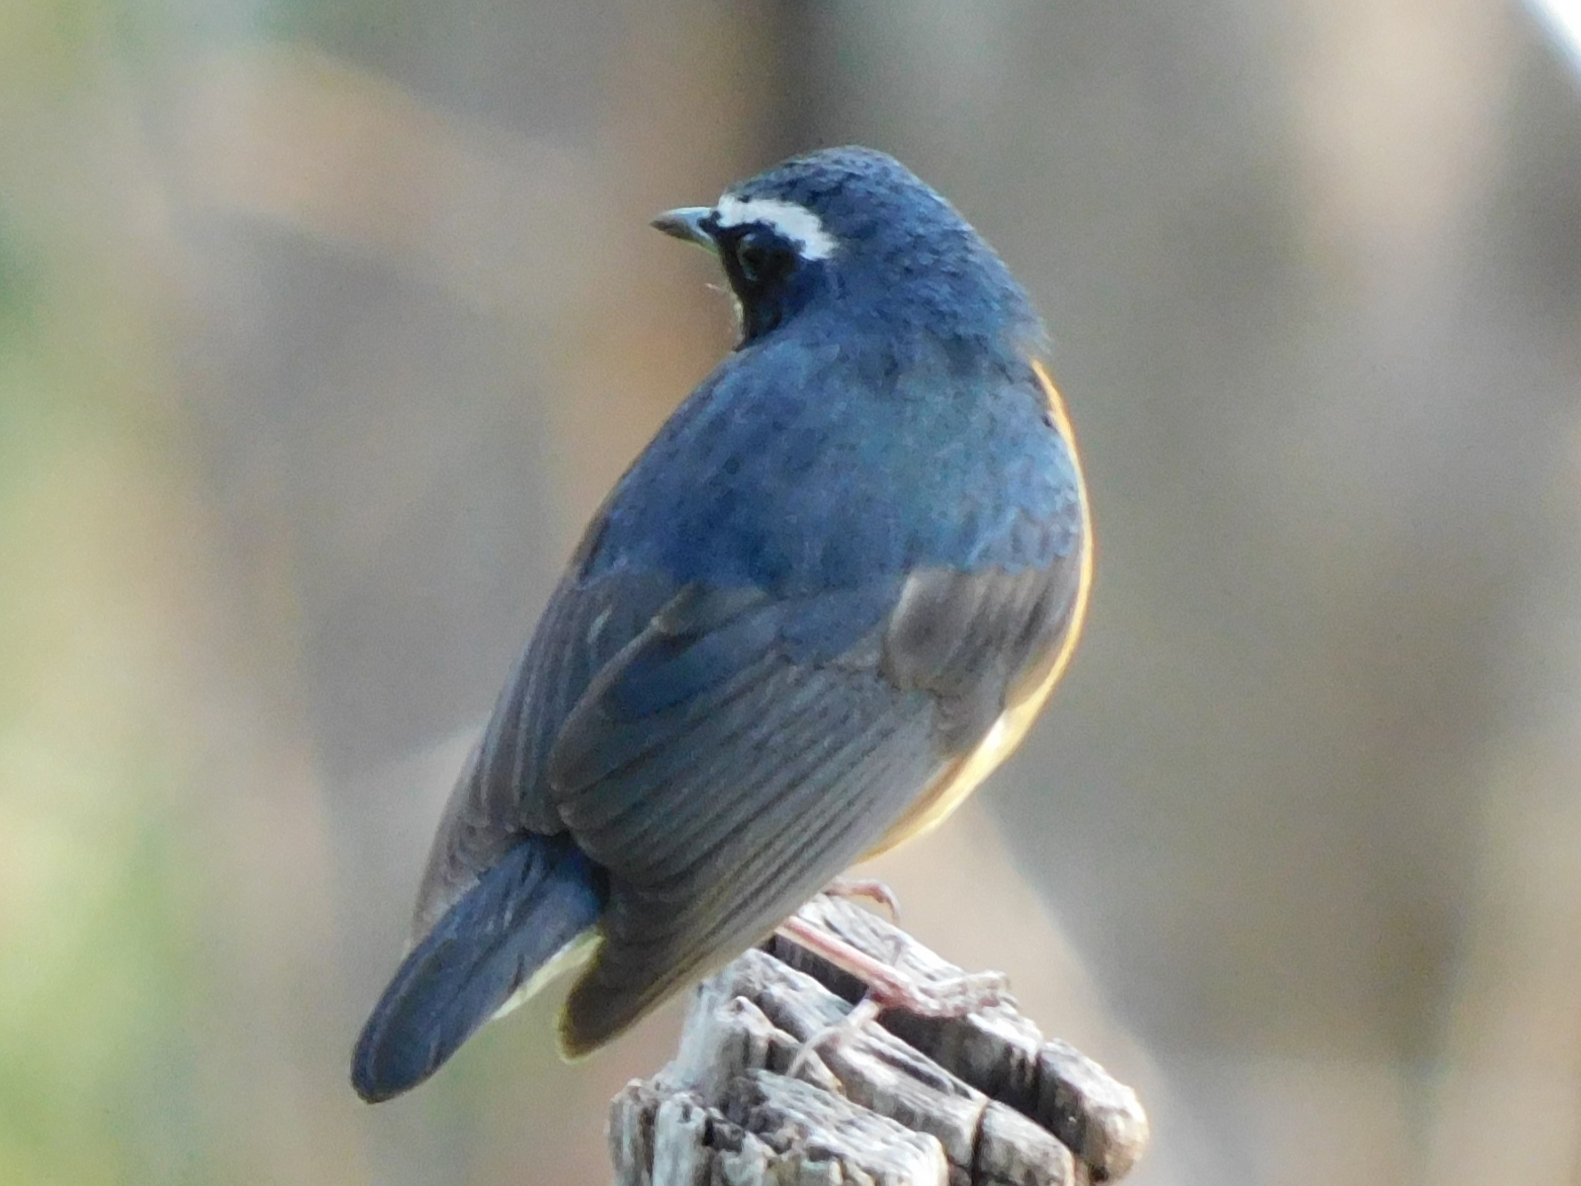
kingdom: Animalia
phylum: Chordata
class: Aves
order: Passeriformes
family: Muscicapidae
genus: Luscinia
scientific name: Luscinia brunnea
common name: Indian blue robin
